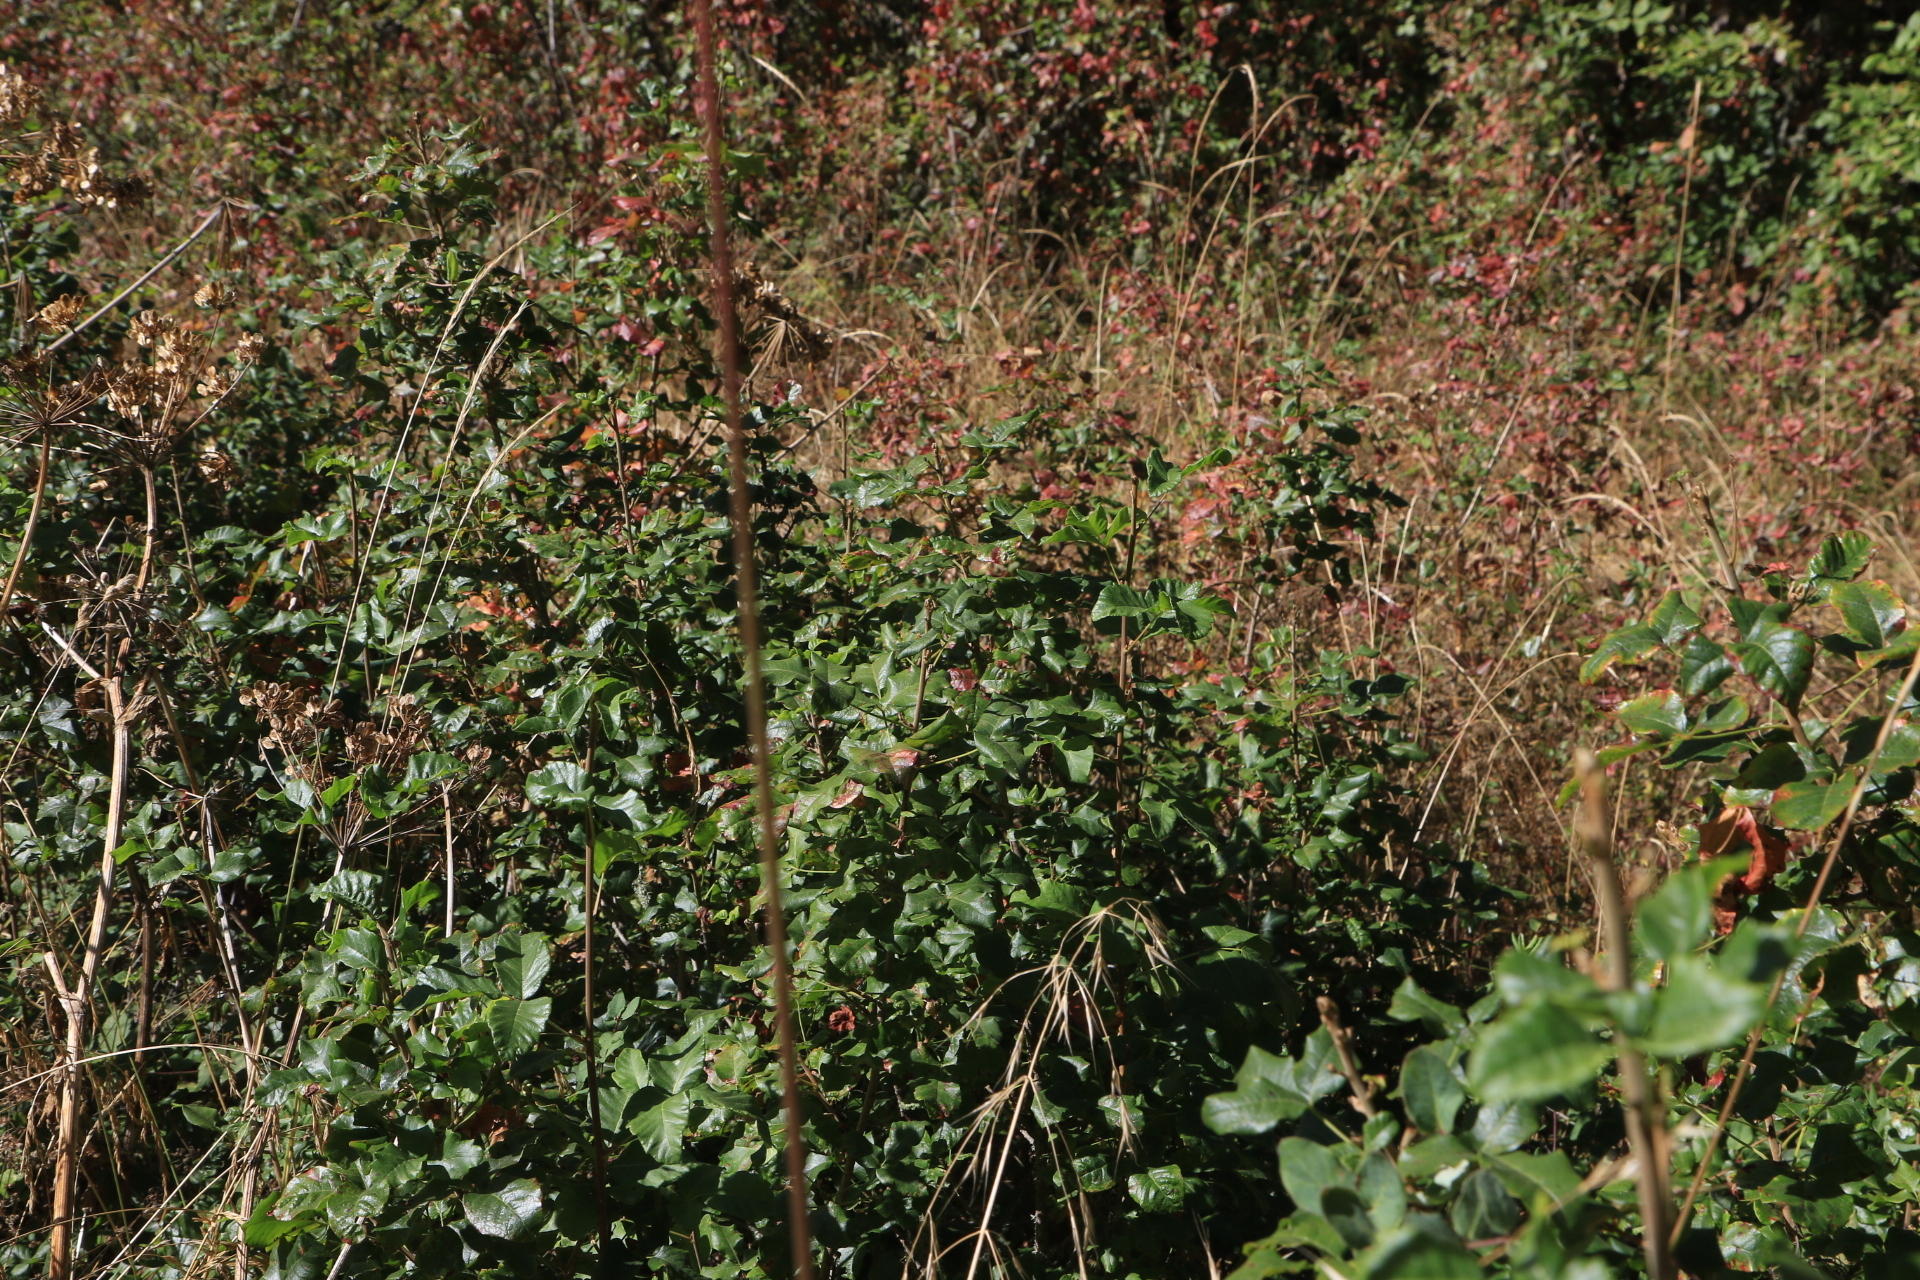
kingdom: Plantae
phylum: Tracheophyta
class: Magnoliopsida
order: Sapindales
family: Anacardiaceae
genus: Toxicodendron
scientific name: Toxicodendron diversilobum
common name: Pacific poison-oak
